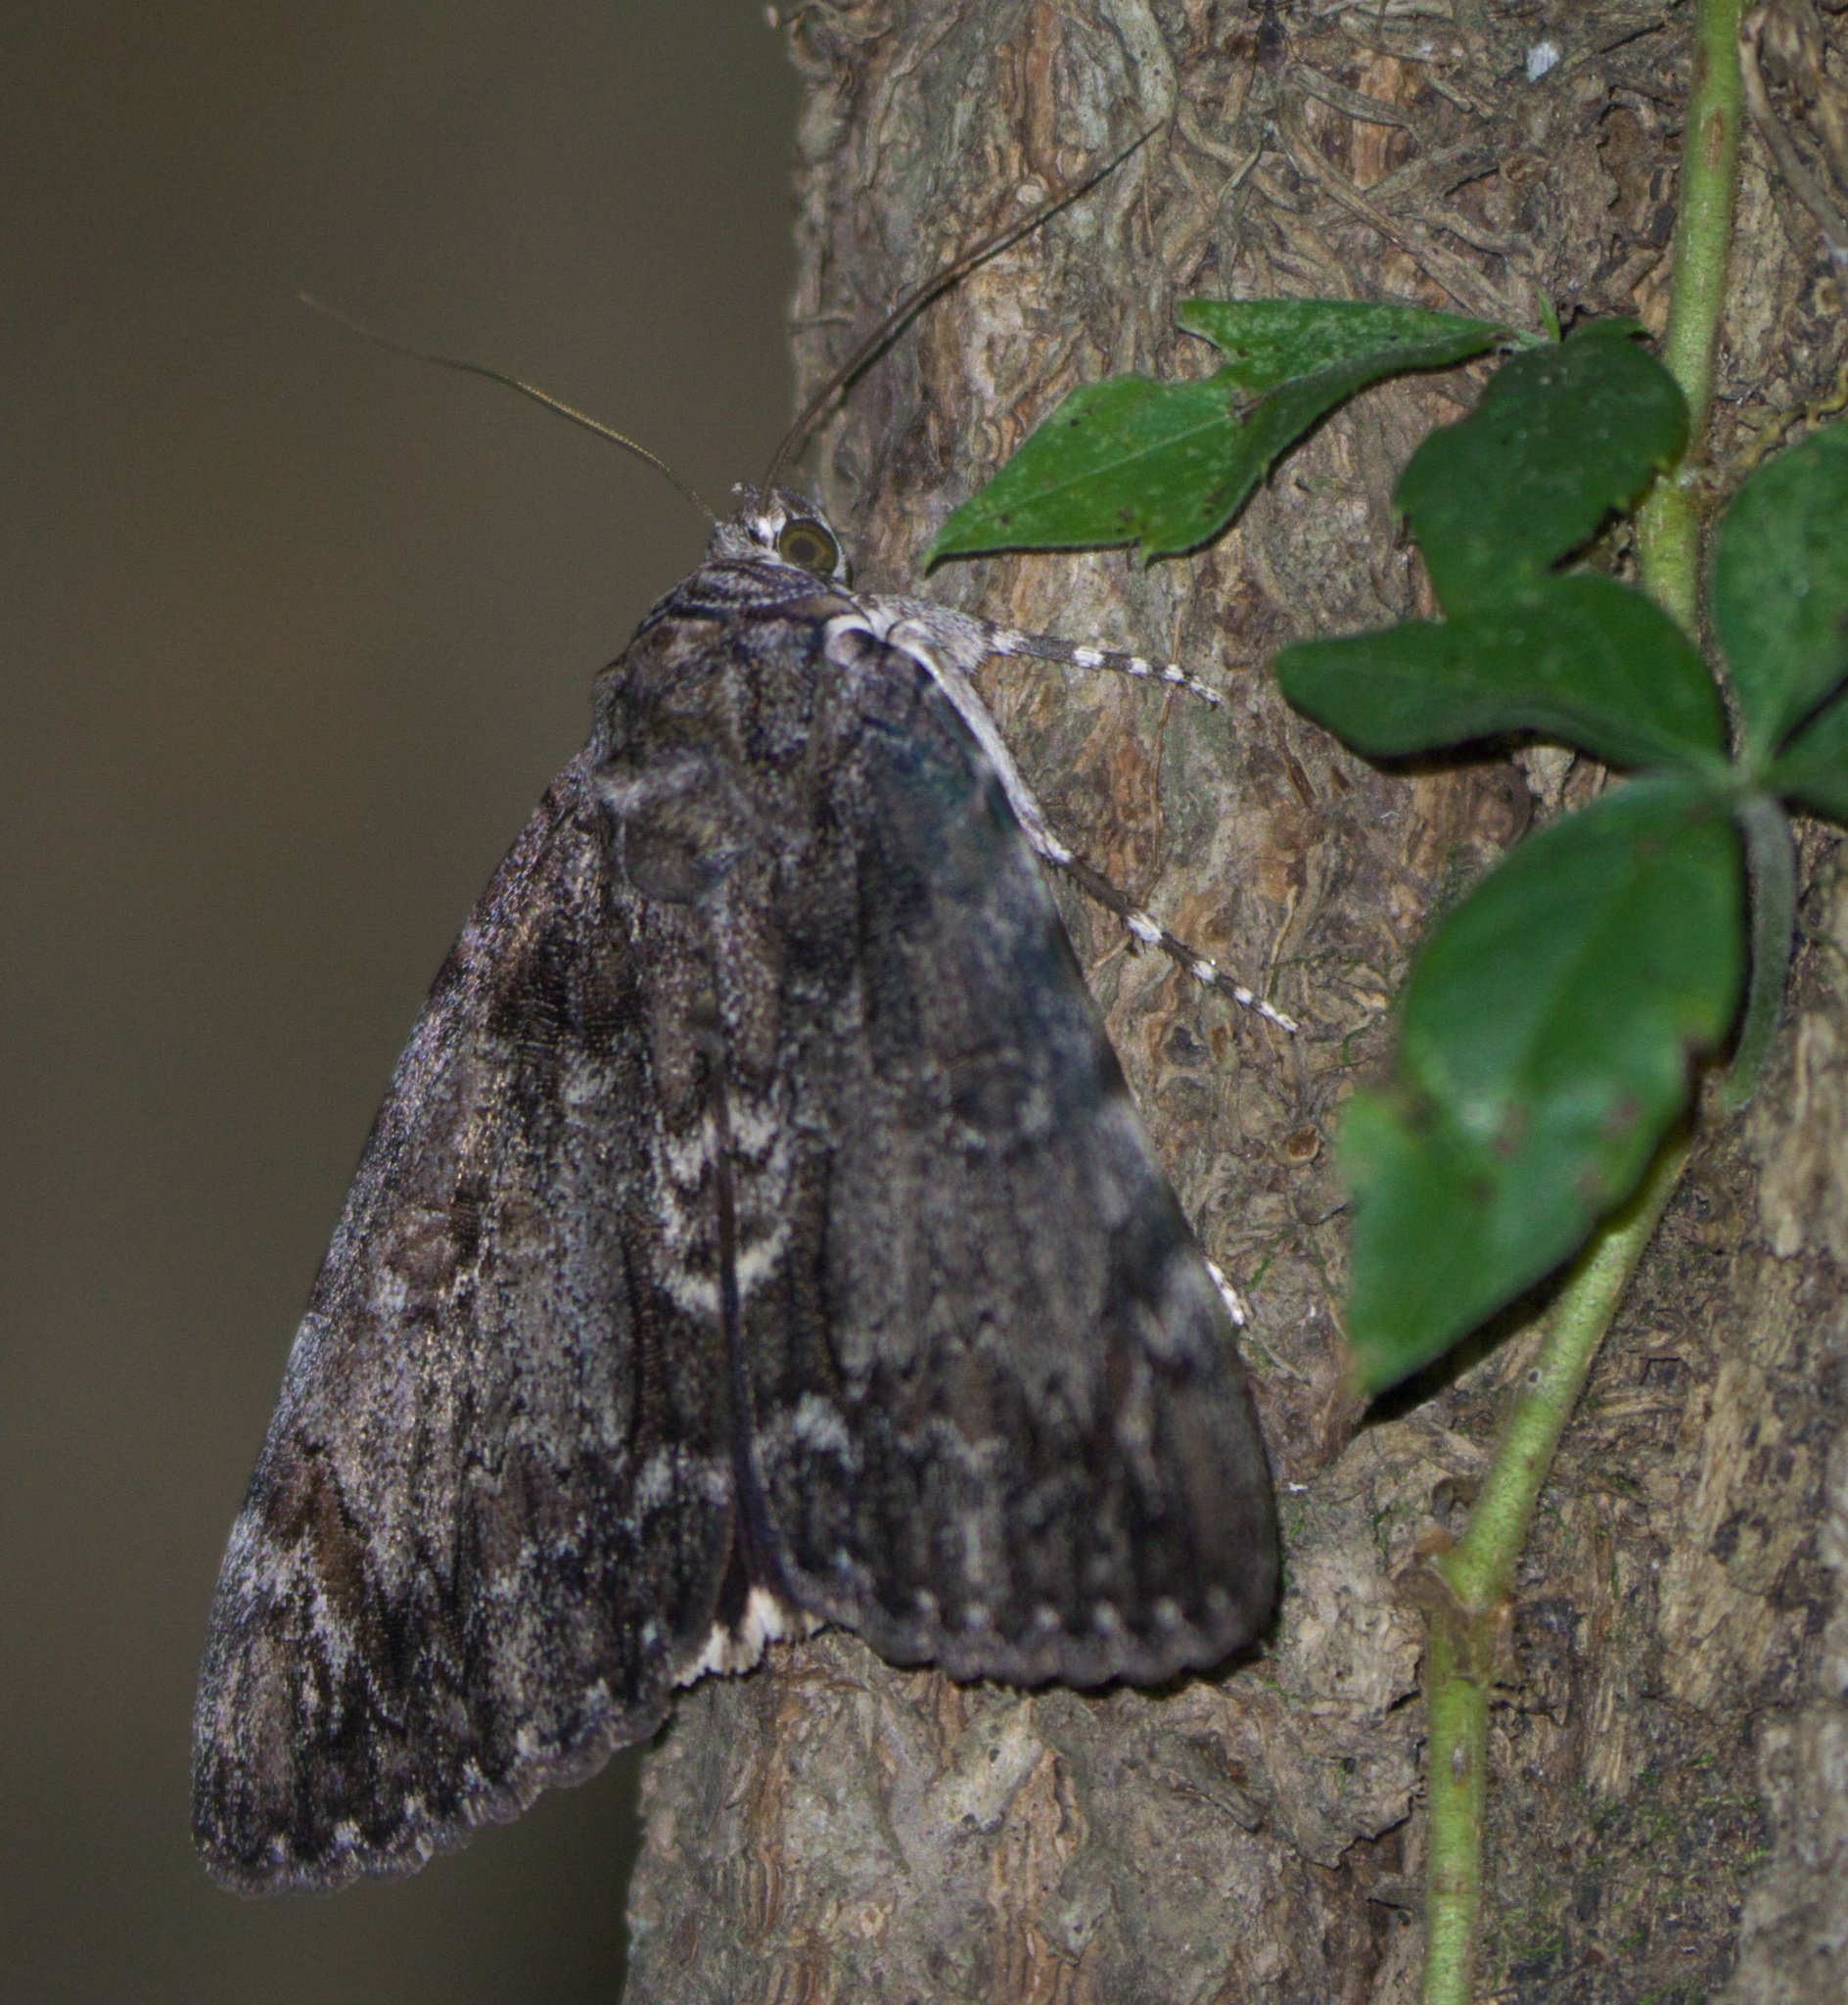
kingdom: Animalia
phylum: Arthropoda
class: Insecta
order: Lepidoptera
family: Erebidae
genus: Catocala
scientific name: Catocala lacrymosa
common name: Tearful underwing
